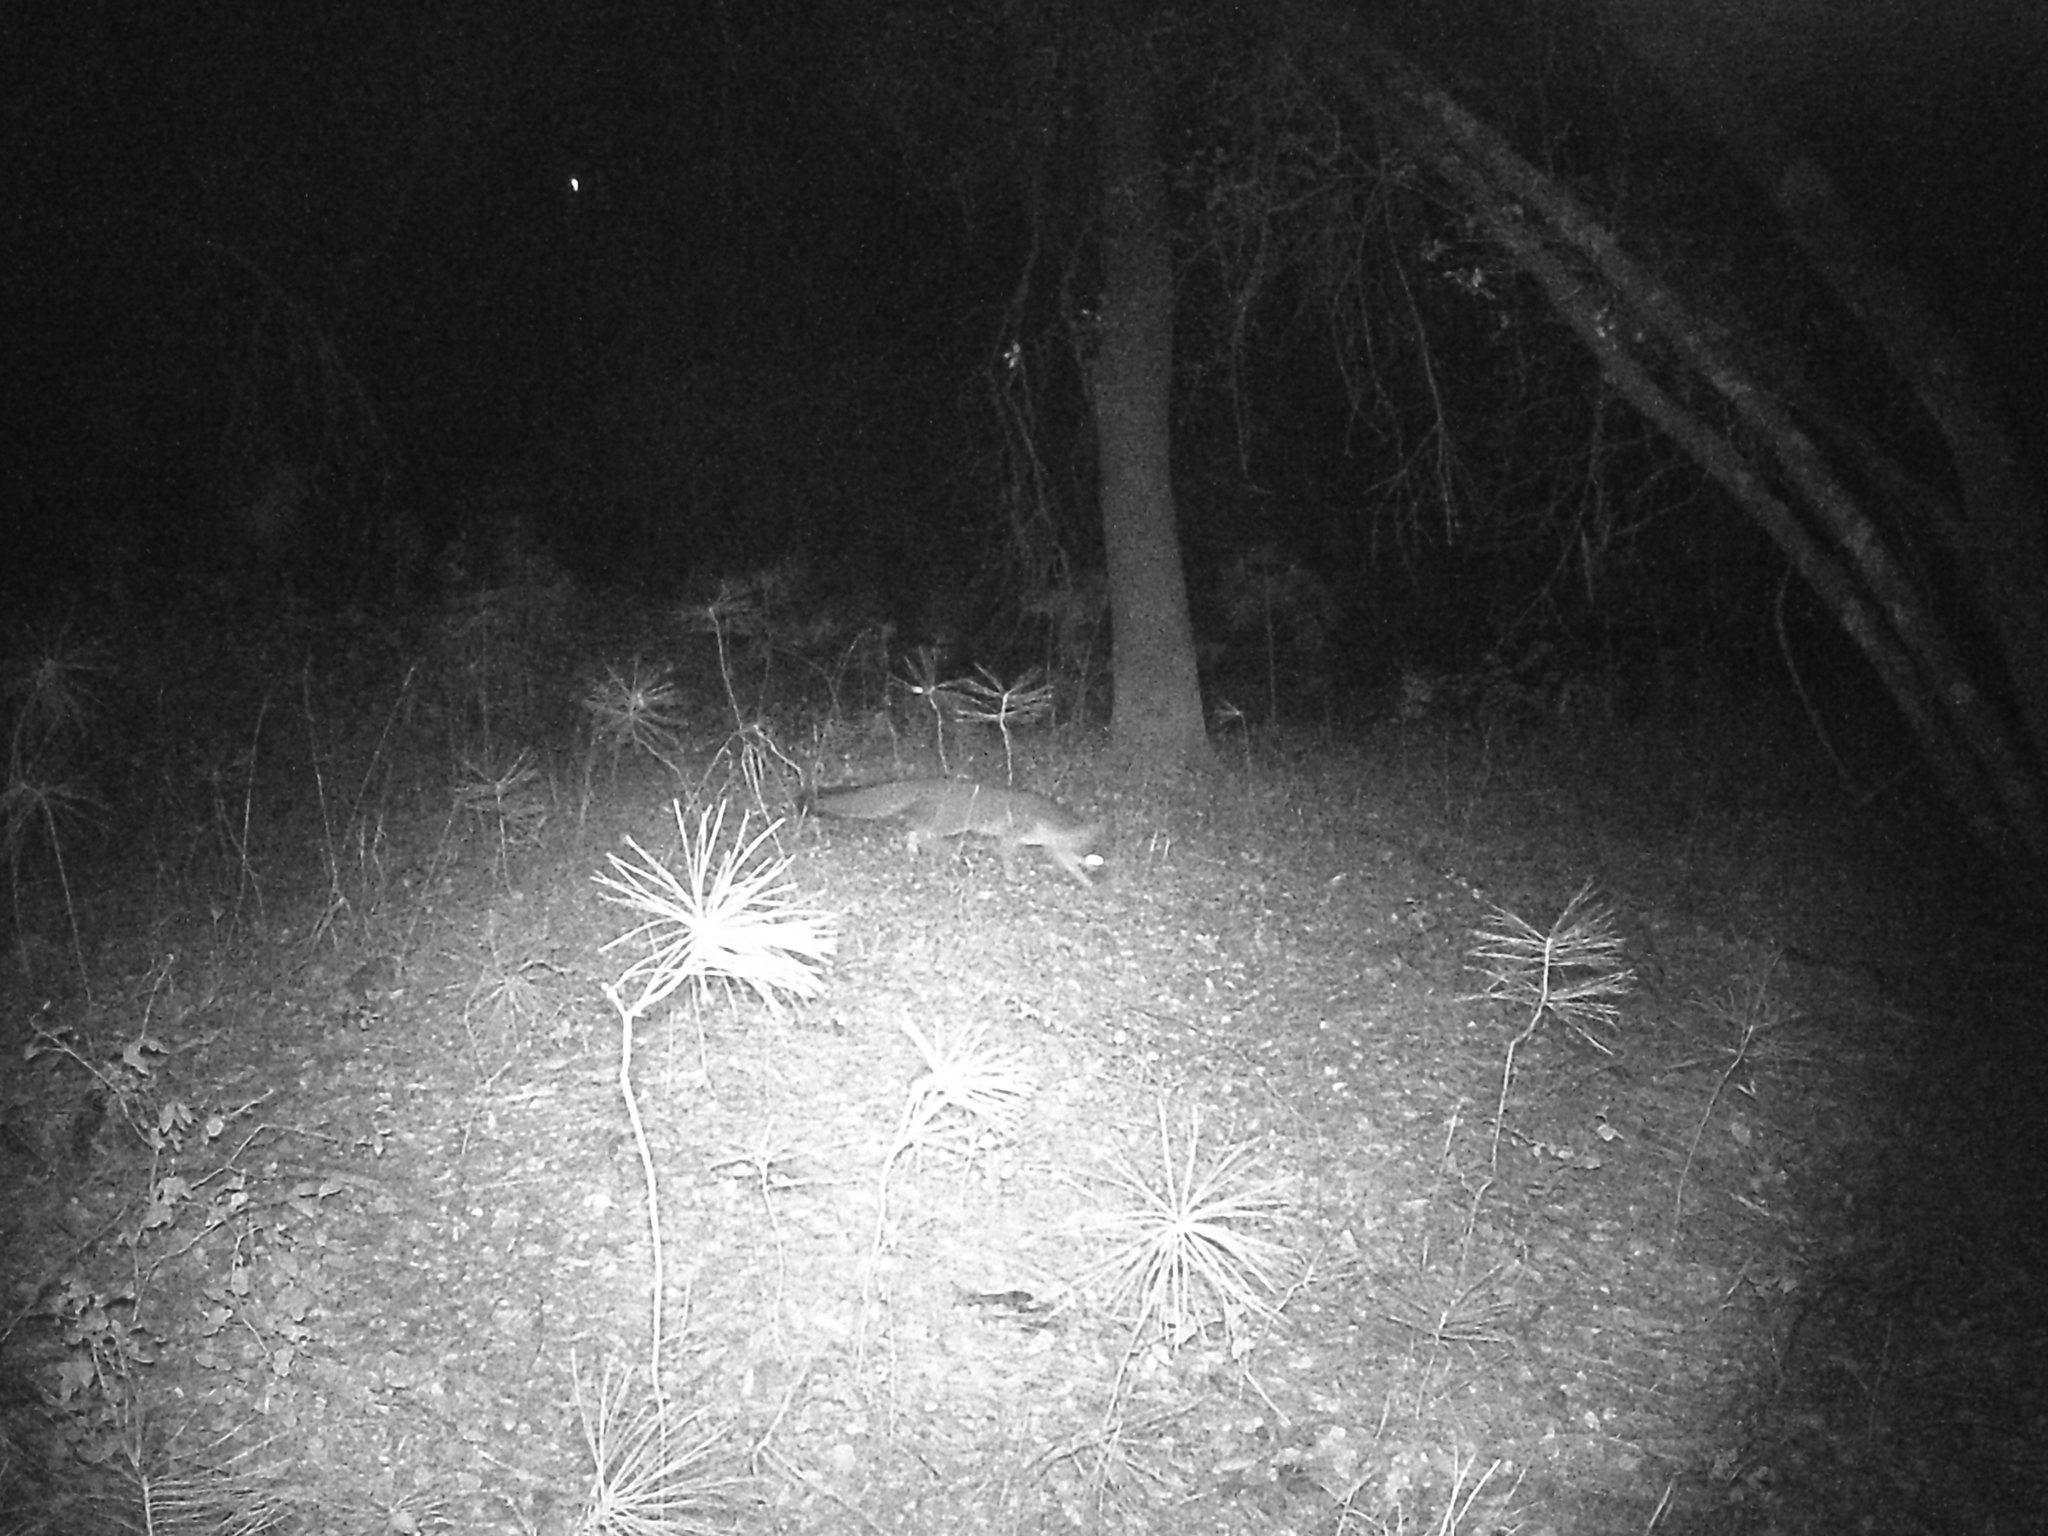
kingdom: Animalia
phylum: Chordata
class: Mammalia
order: Carnivora
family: Canidae
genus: Urocyon
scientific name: Urocyon cinereoargenteus
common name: Gray fox
